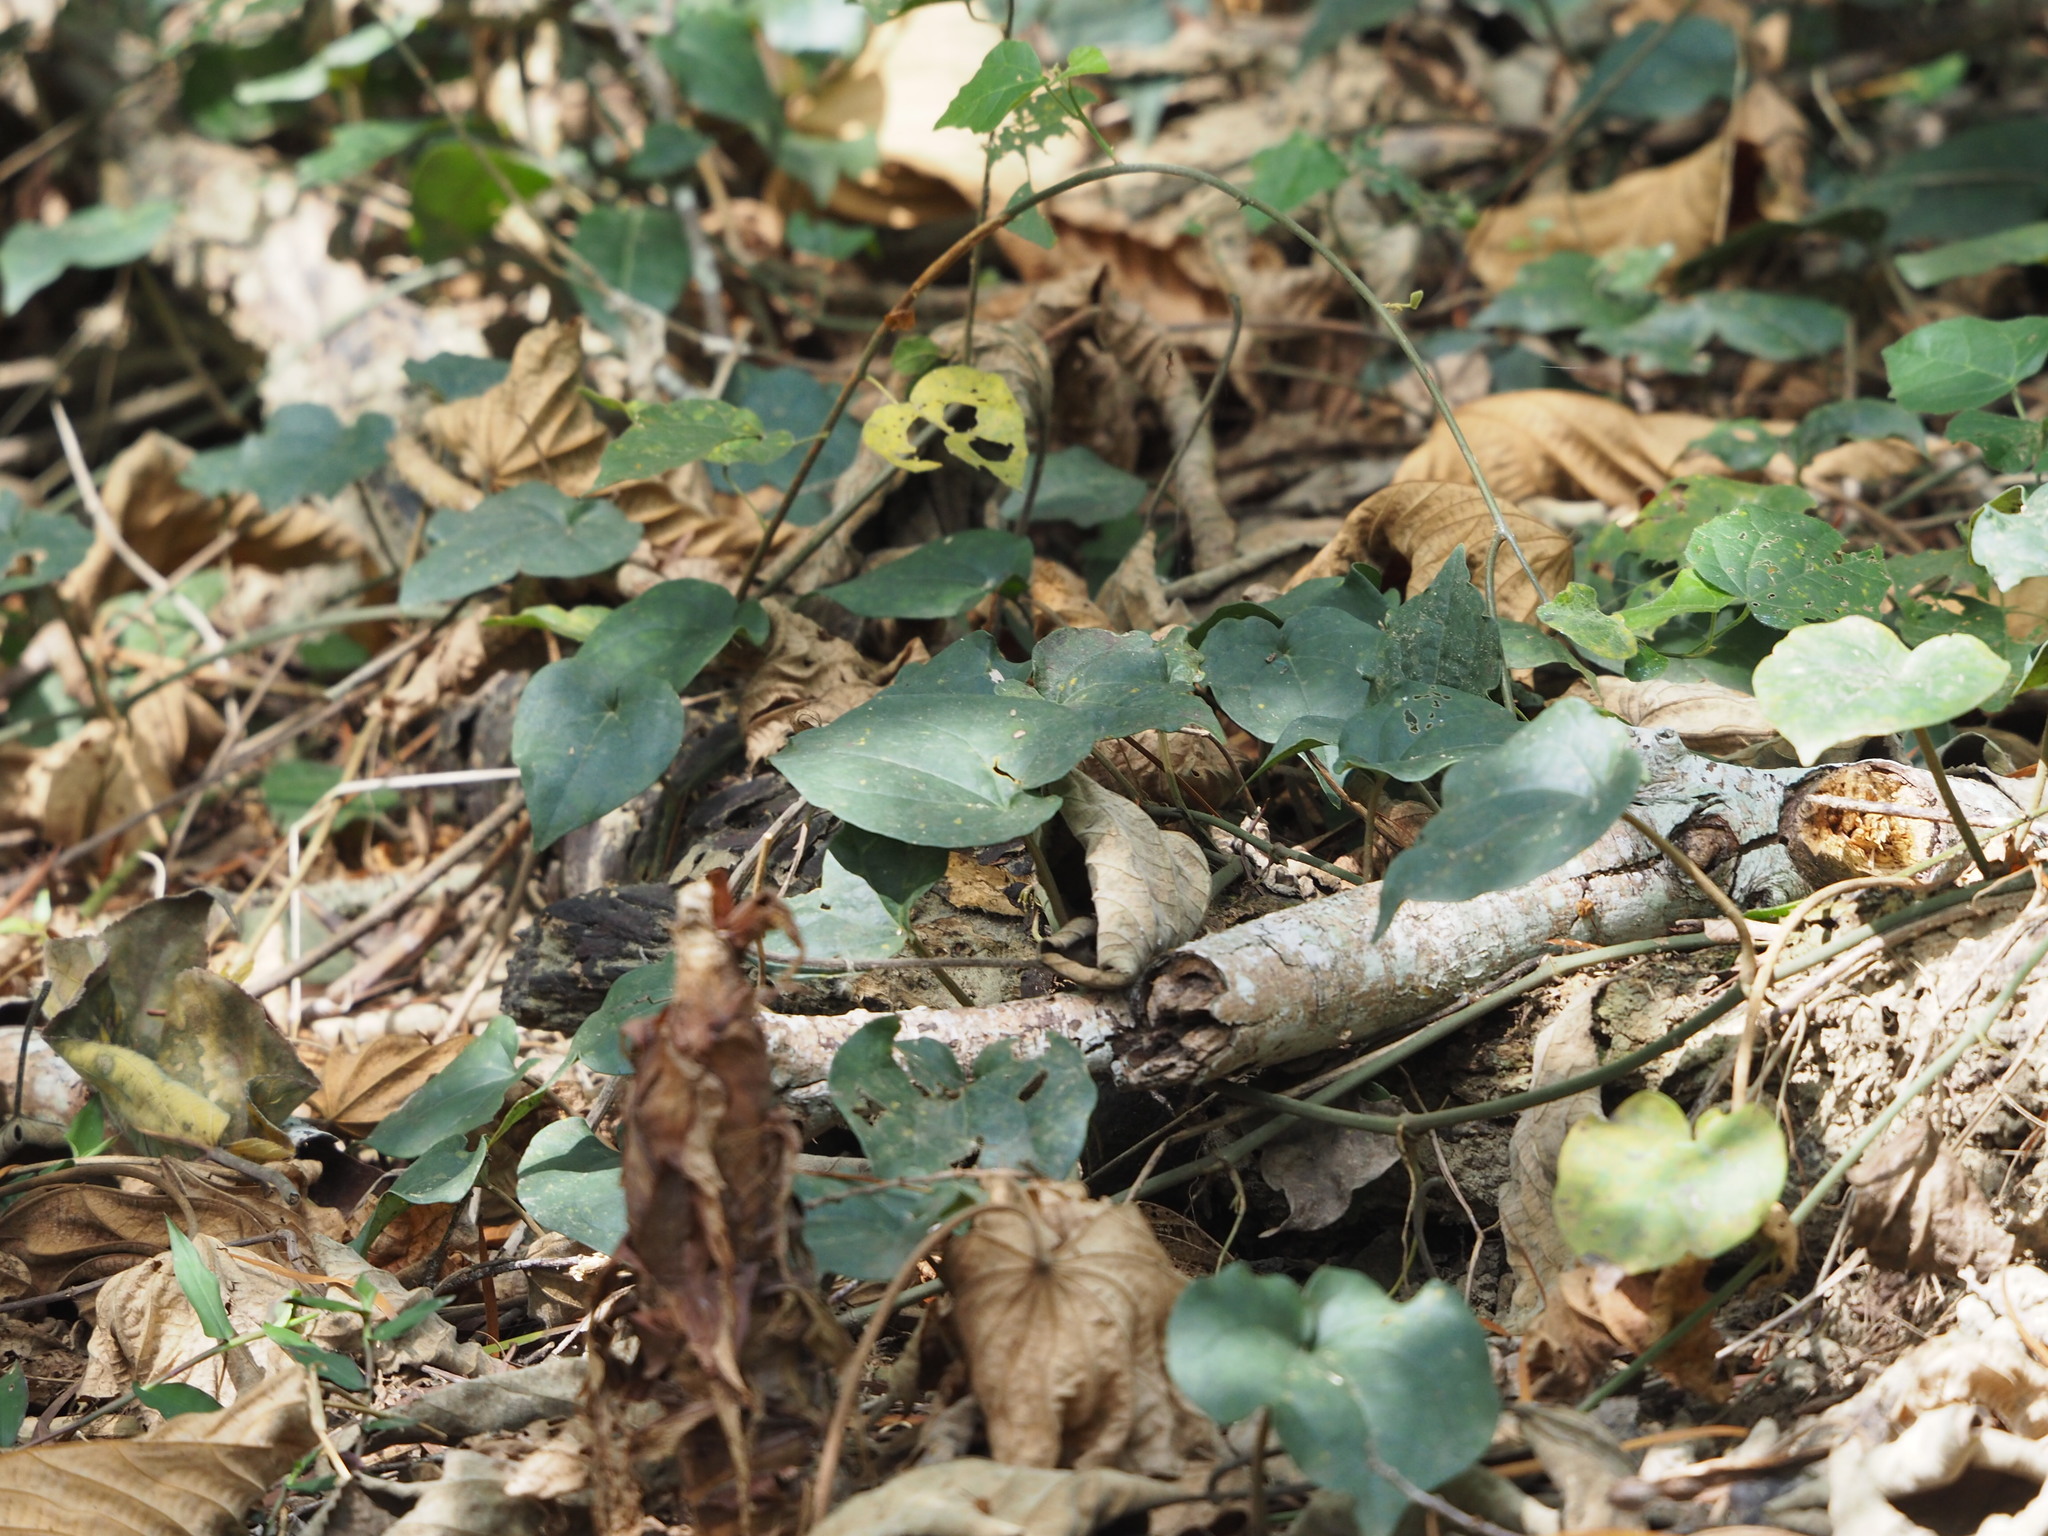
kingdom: Plantae
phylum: Tracheophyta
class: Magnoliopsida
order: Piperales
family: Piperaceae
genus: Piper
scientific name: Piper kadsura
